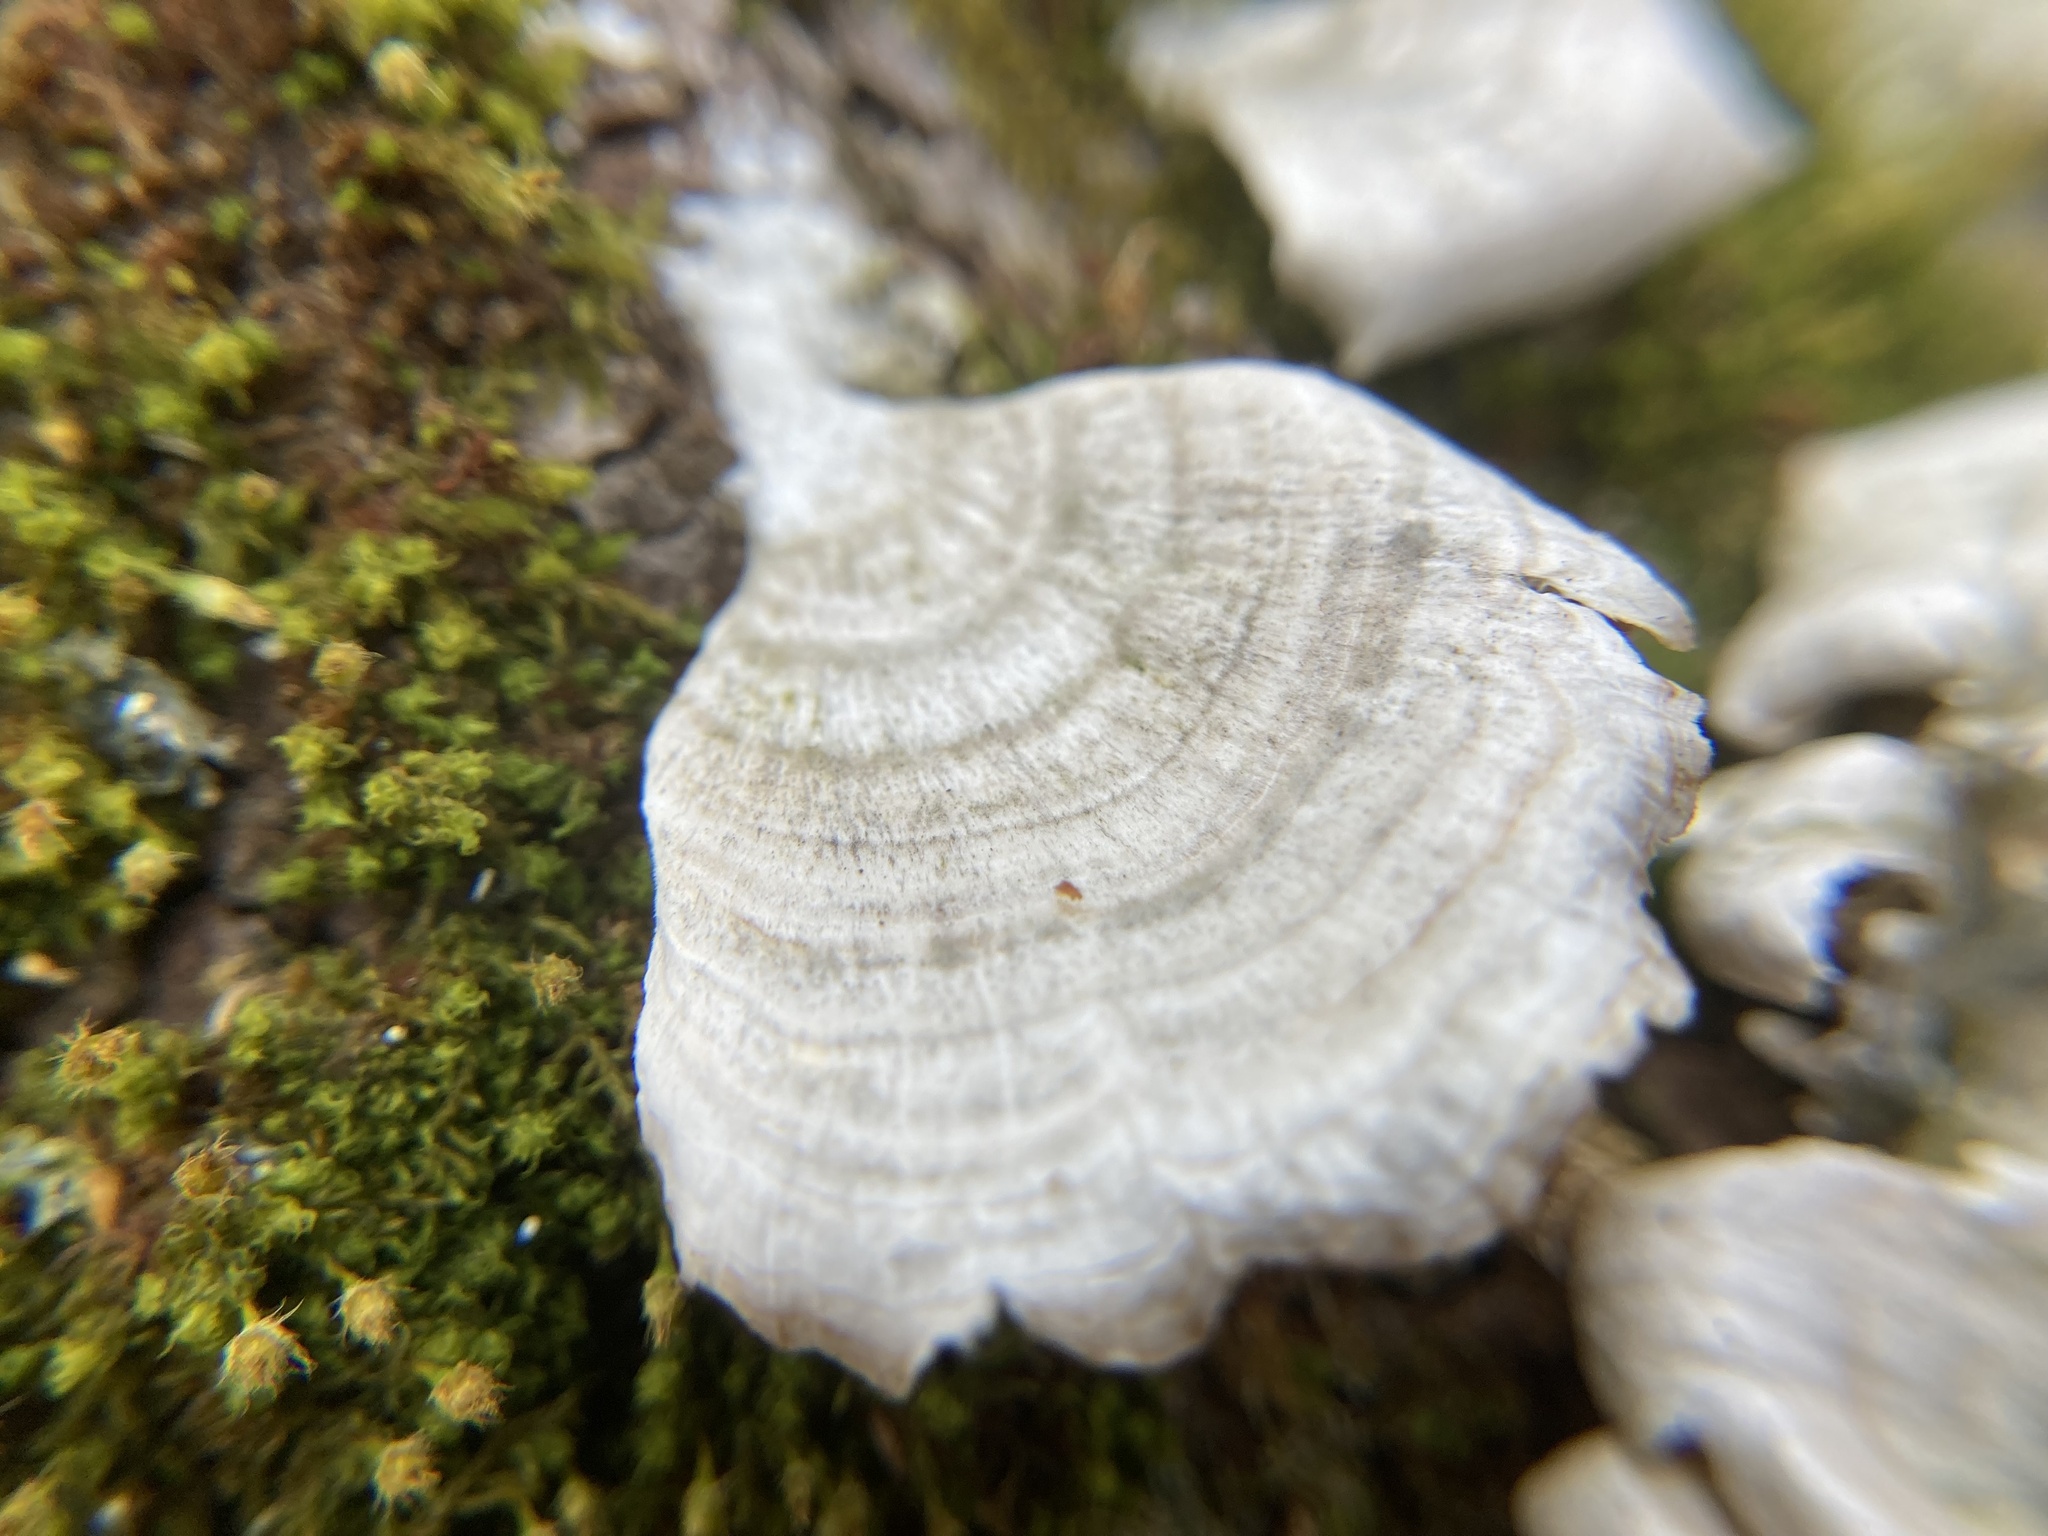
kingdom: Fungi
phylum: Basidiomycota
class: Agaricomycetes
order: Russulales
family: Stereaceae
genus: Stereum
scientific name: Stereum ostrea
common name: False turkeytail
